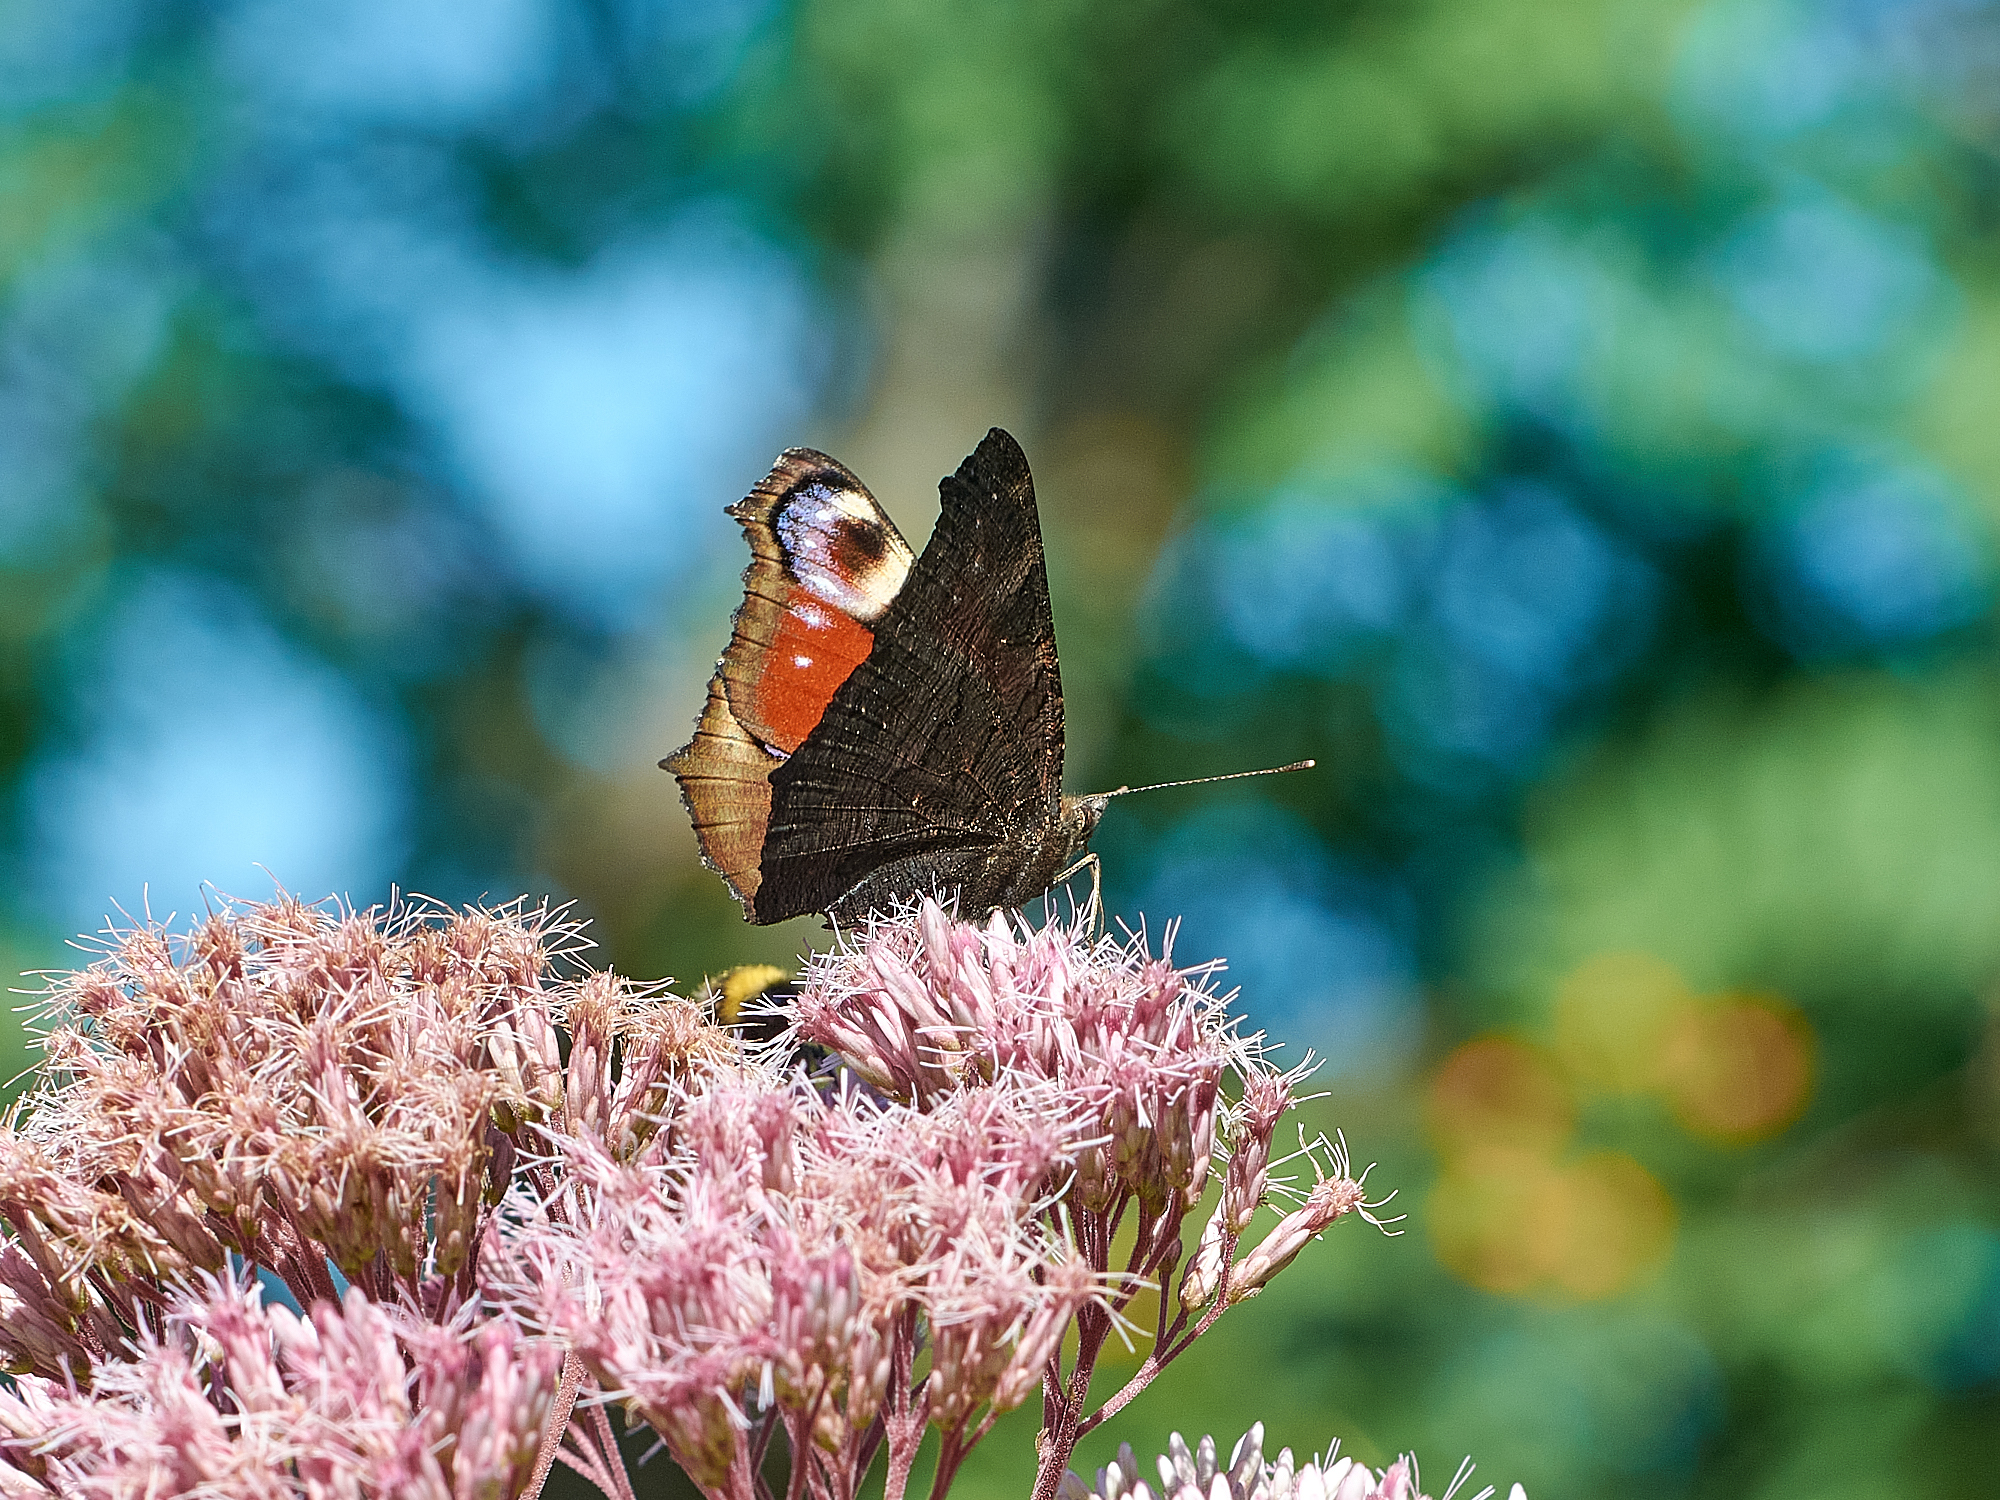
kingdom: Animalia
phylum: Arthropoda
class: Insecta
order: Lepidoptera
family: Nymphalidae
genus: Aglais
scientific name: Aglais io
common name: Peacock
